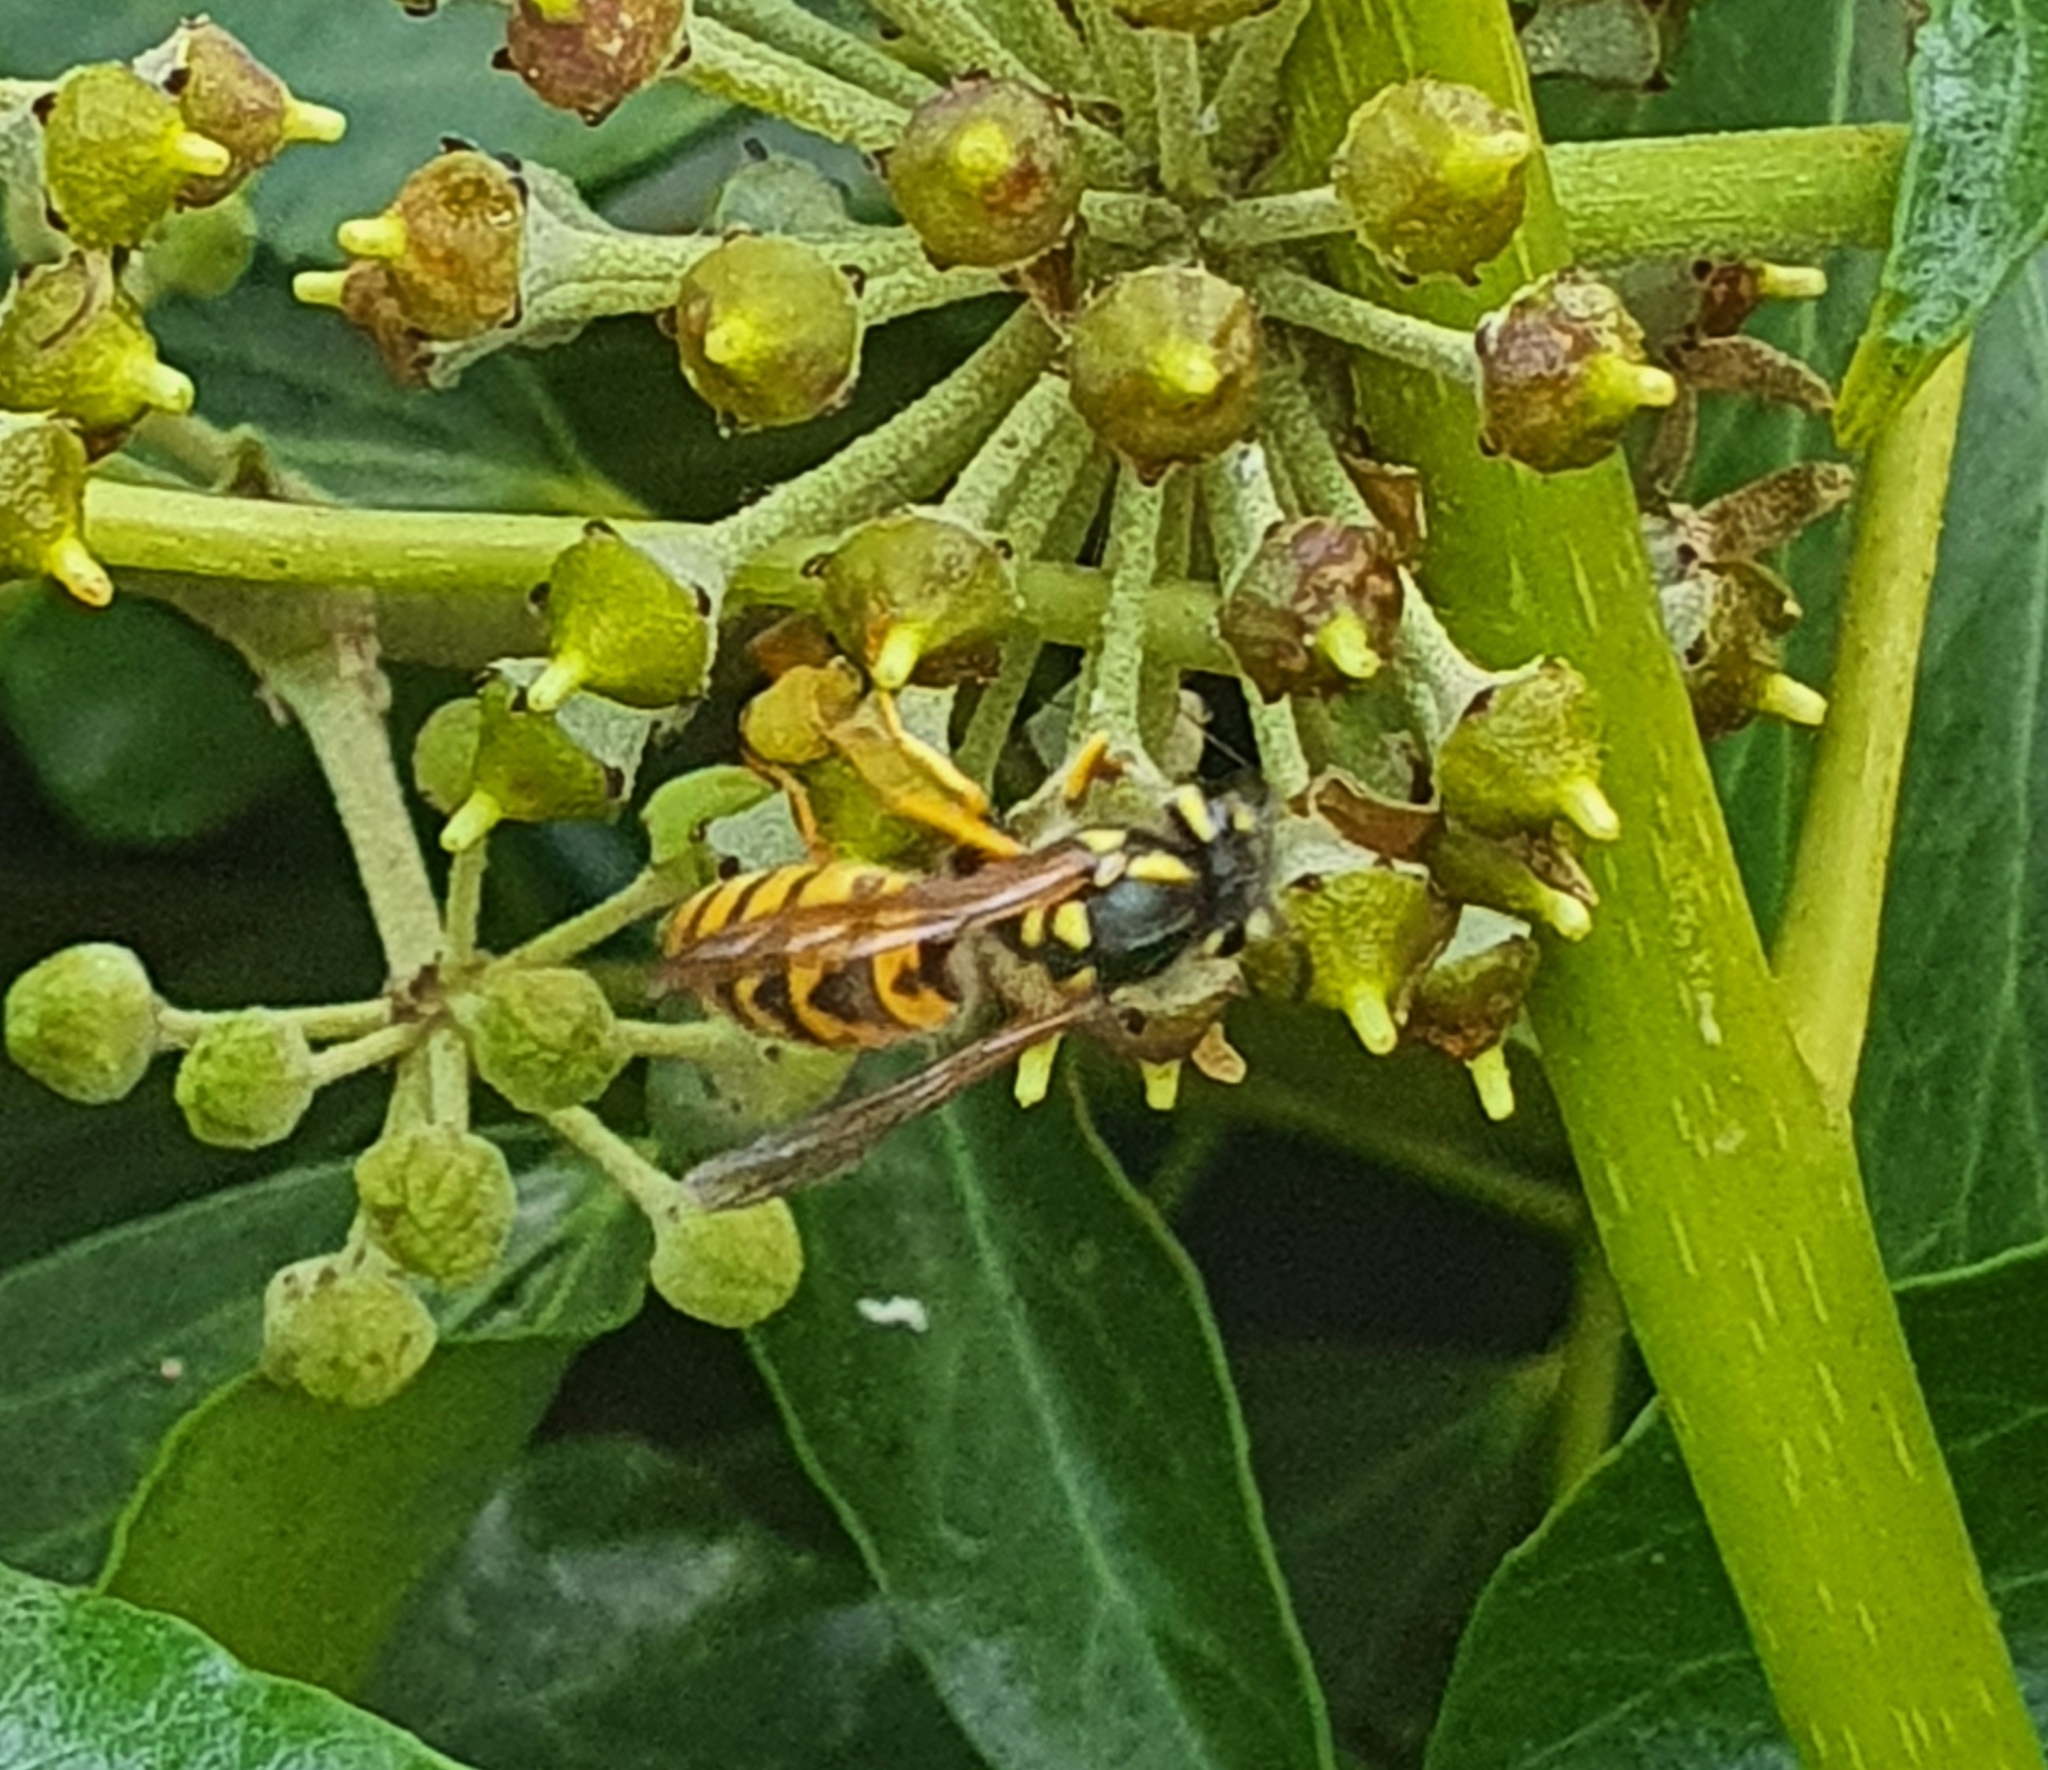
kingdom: Animalia
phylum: Arthropoda
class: Insecta
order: Hymenoptera
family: Vespidae
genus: Vespula
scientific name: Vespula germanica
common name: German wasp
